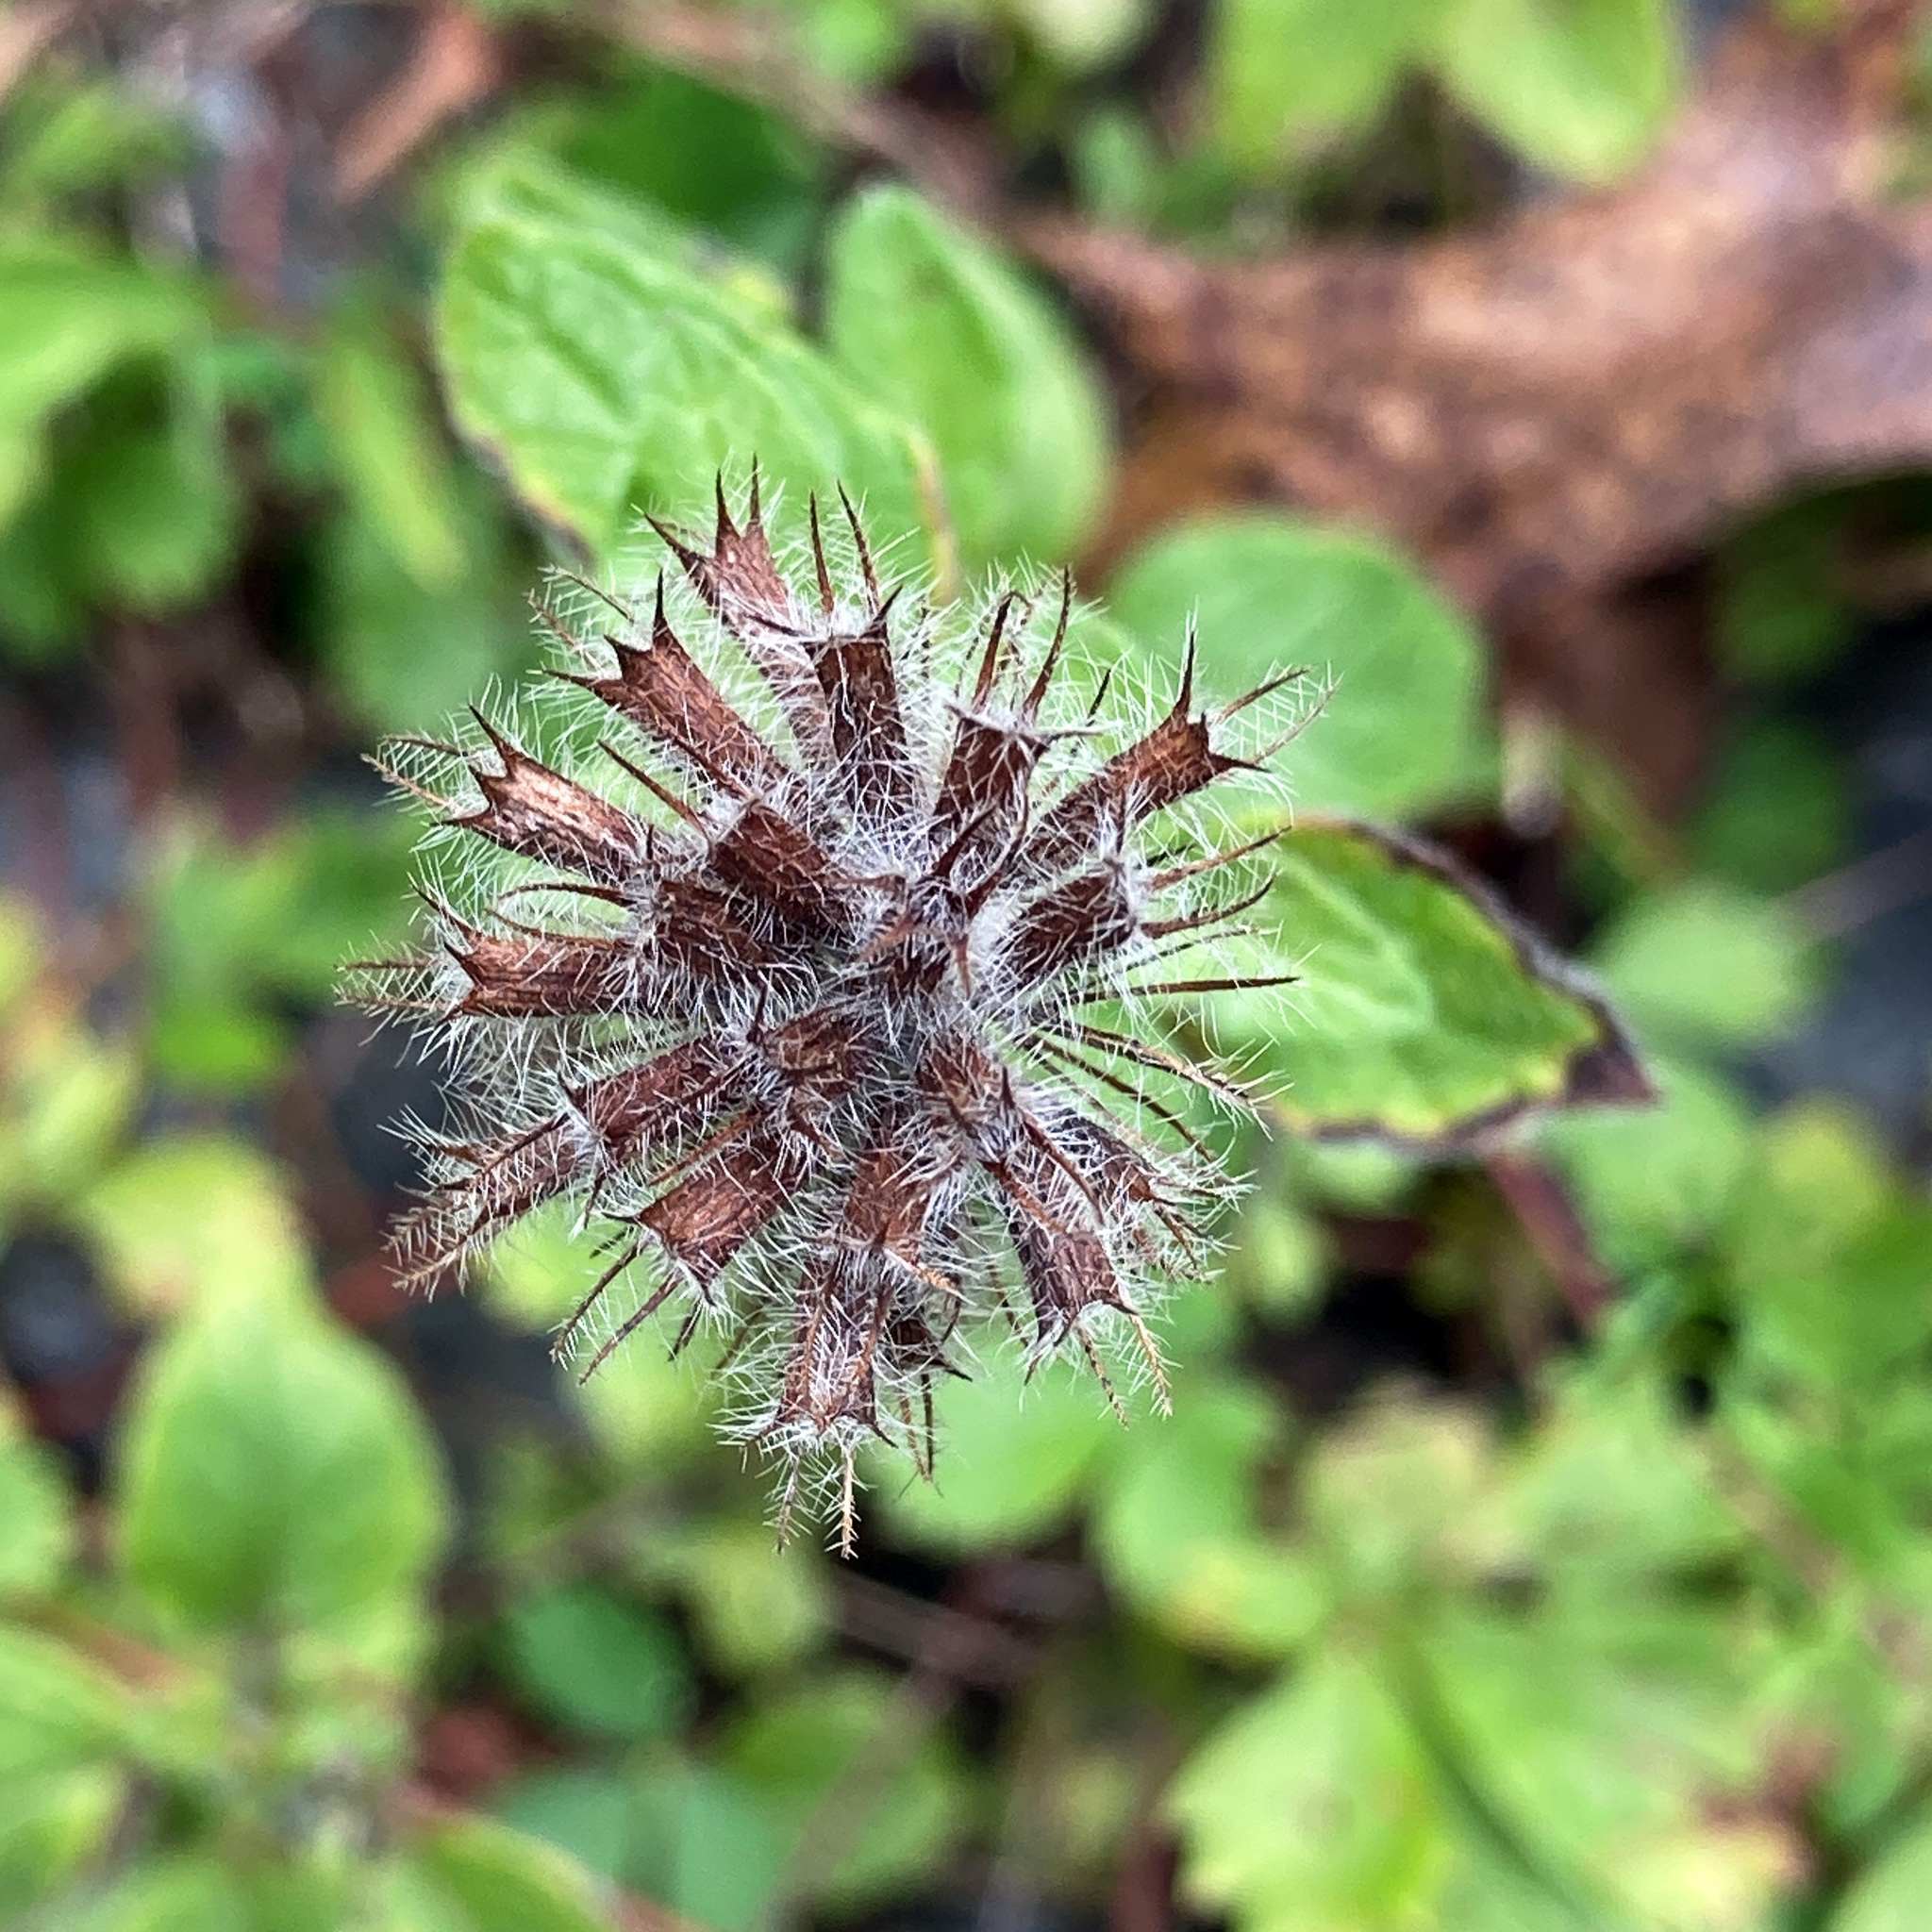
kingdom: Plantae
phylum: Tracheophyta
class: Magnoliopsida
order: Lamiales
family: Lamiaceae
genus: Clinopodium
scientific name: Clinopodium vulgare
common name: Wild basil
